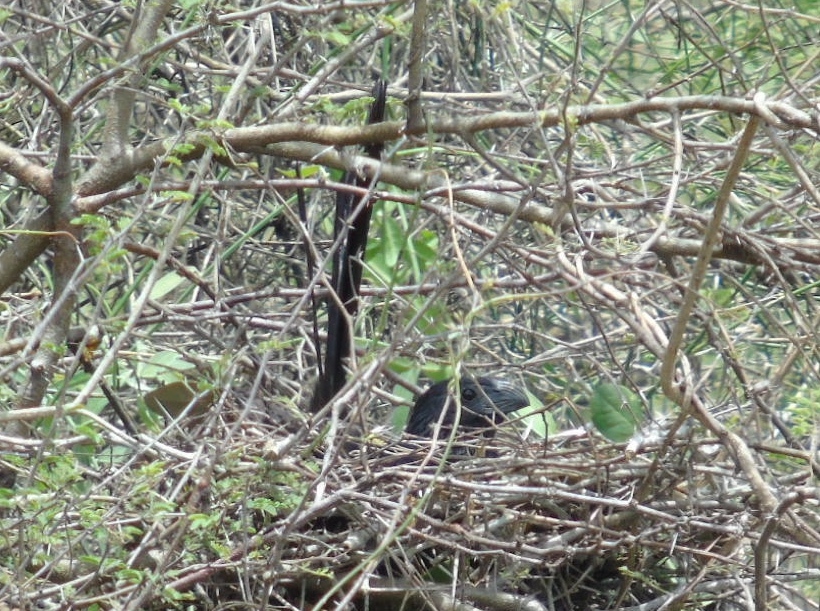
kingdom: Animalia
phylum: Chordata
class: Aves
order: Cuculiformes
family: Cuculidae
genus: Crotophaga
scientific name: Crotophaga sulcirostris
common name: Groove-billed ani
